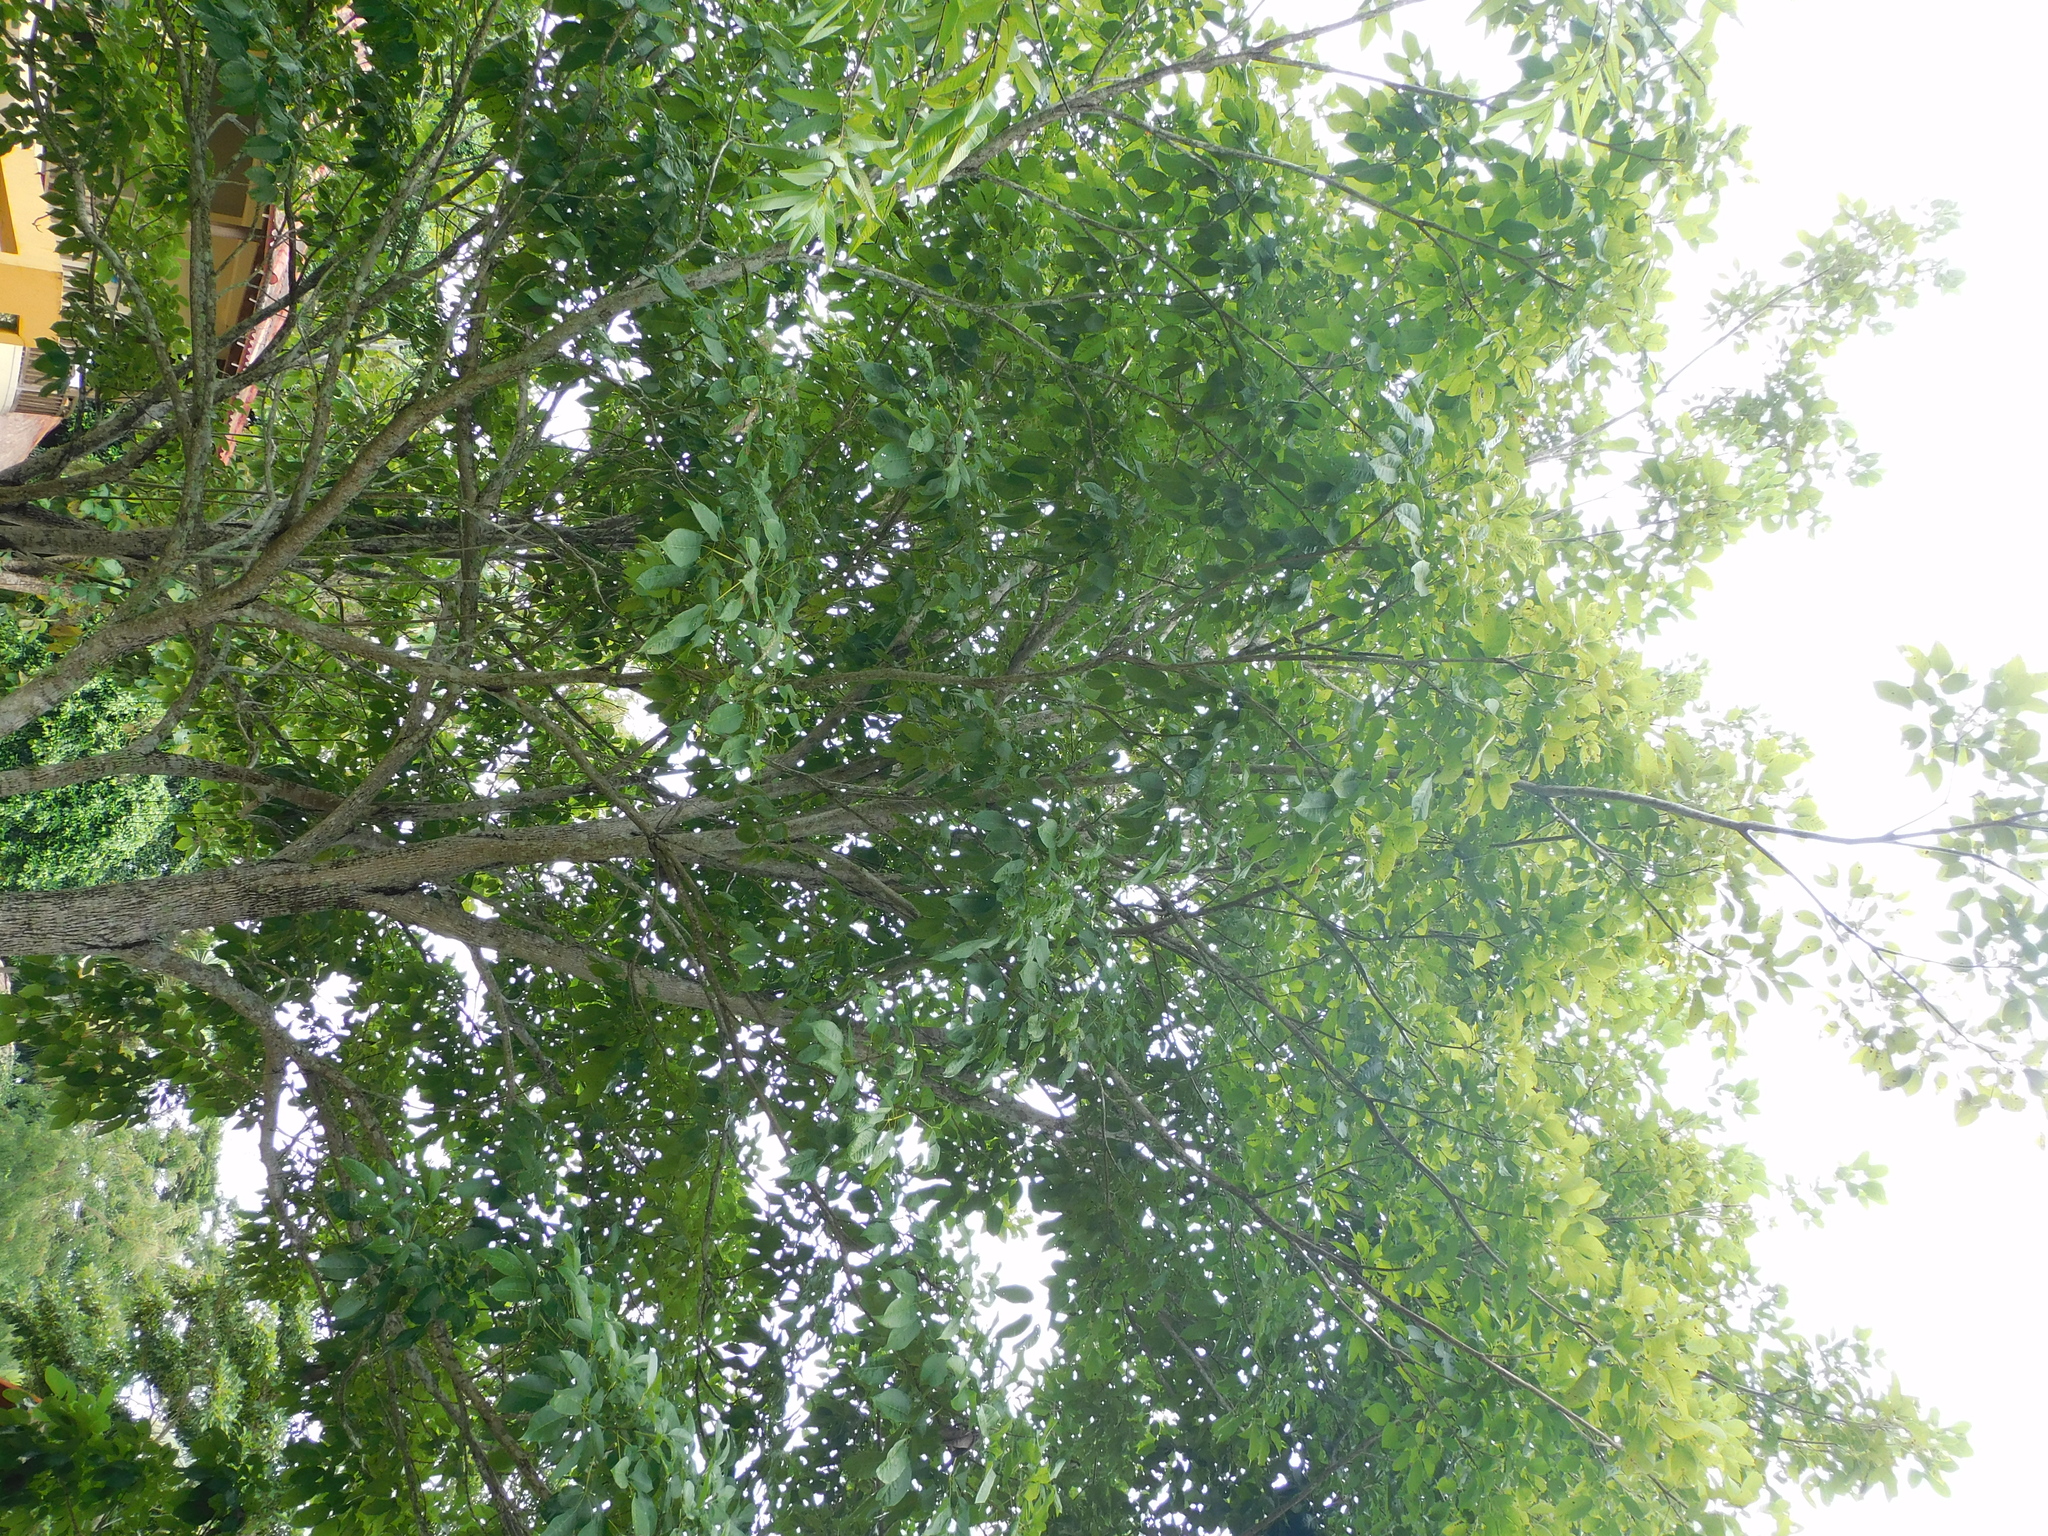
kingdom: Plantae
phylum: Tracheophyta
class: Magnoliopsida
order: Lamiales
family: Bignoniaceae
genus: Tabebuia
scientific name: Tabebuia rosea
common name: Pink poui
